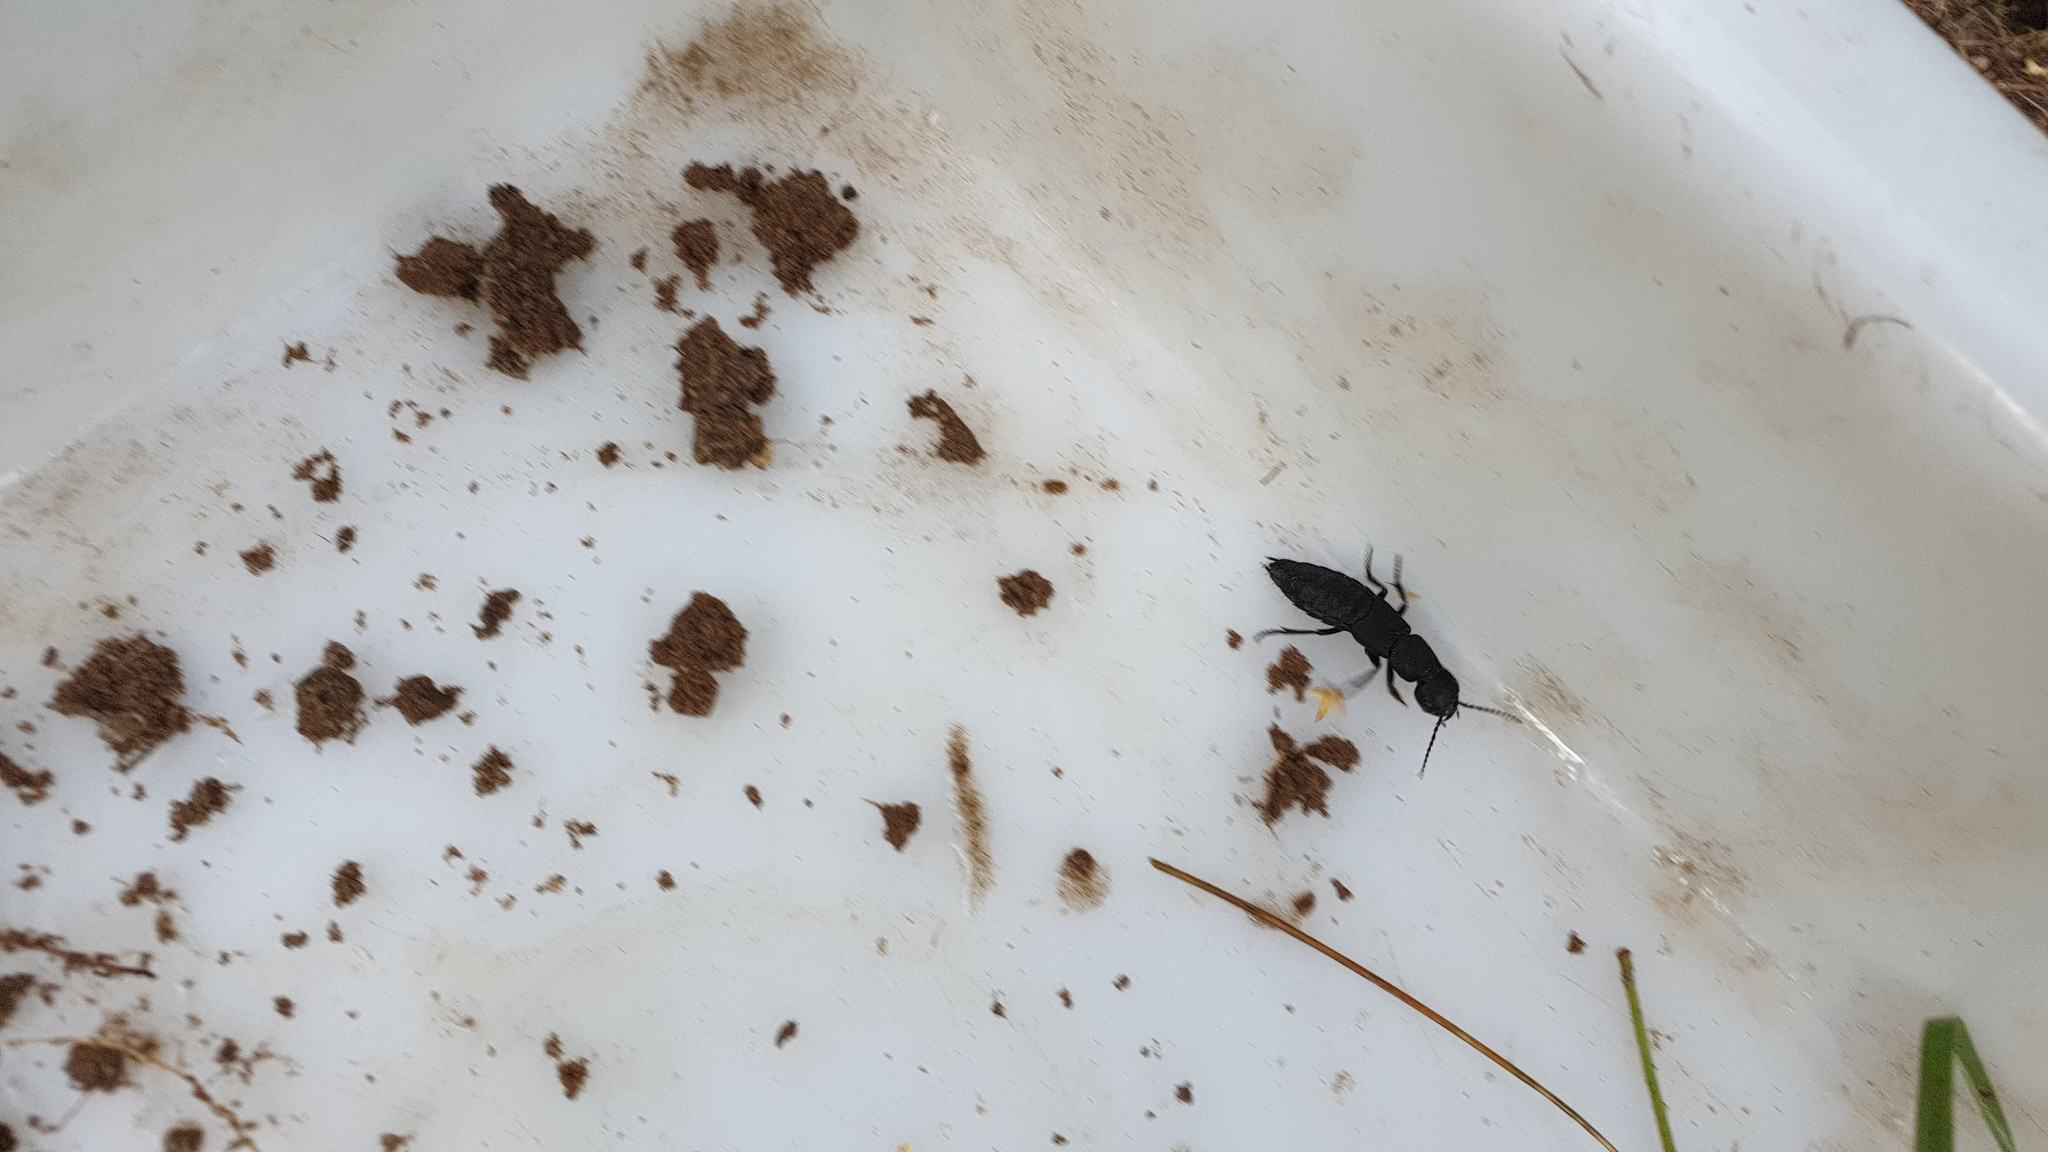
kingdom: Animalia
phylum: Arthropoda
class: Insecta
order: Coleoptera
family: Staphylinidae
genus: Ocypus
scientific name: Ocypus olens
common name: Devil's coach-horse
